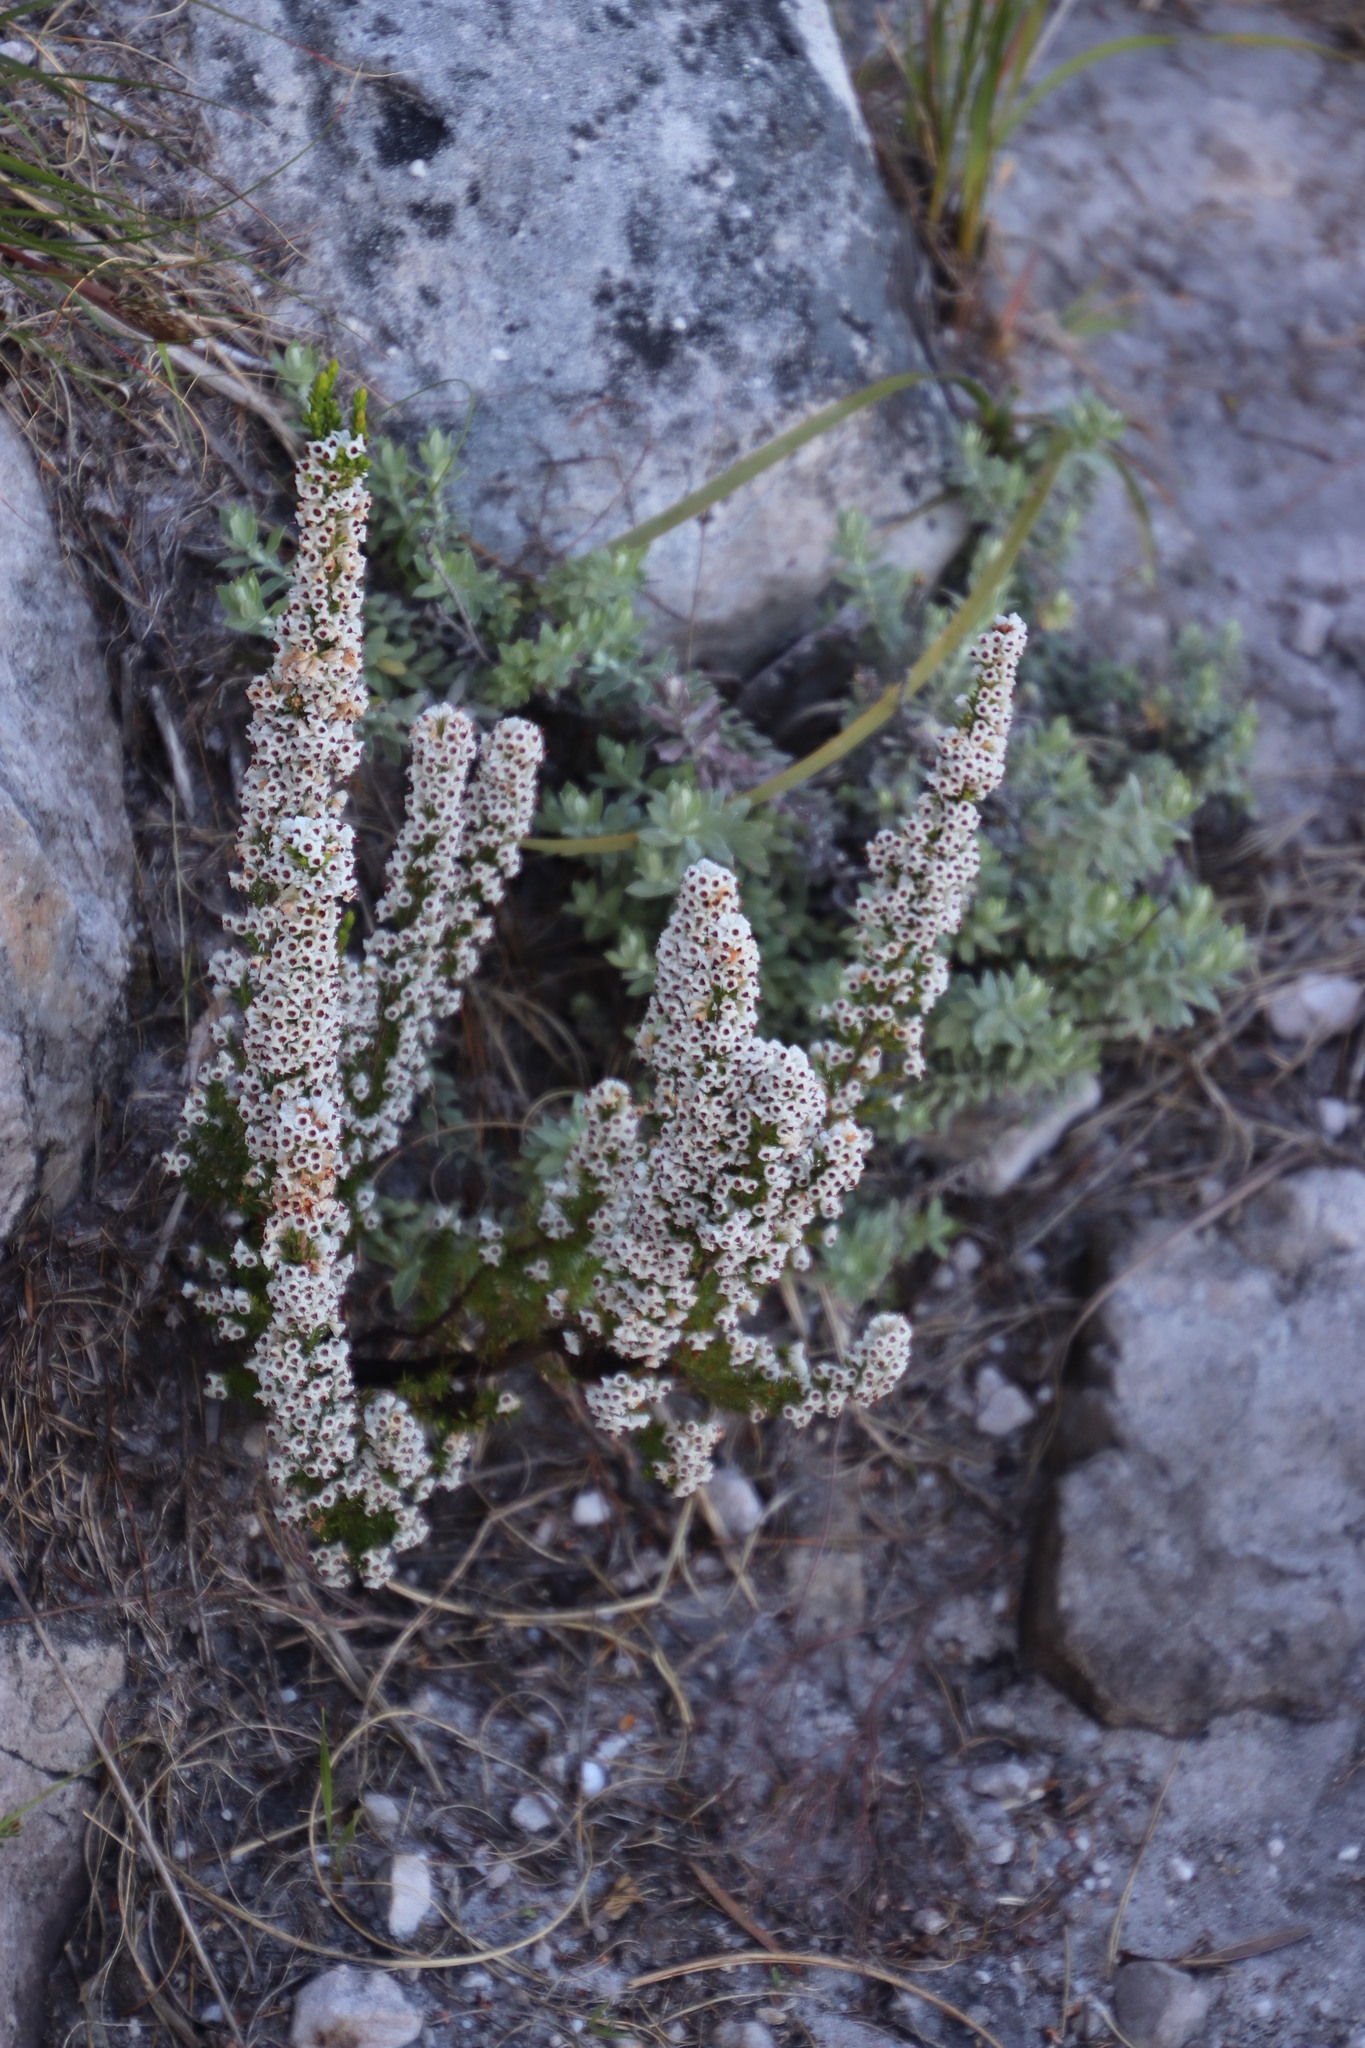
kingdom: Plantae
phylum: Tracheophyta
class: Magnoliopsida
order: Ericales
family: Ericaceae
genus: Erica
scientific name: Erica calycina
